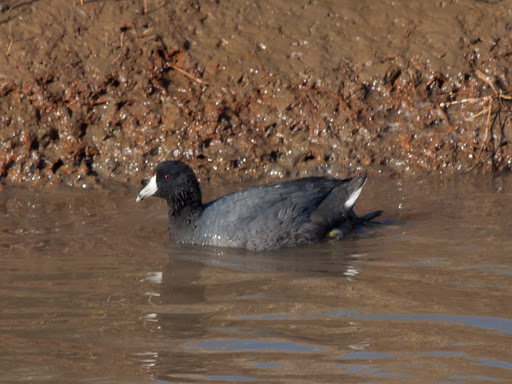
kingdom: Animalia
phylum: Chordata
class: Aves
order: Gruiformes
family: Rallidae
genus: Fulica
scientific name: Fulica americana
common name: American coot
